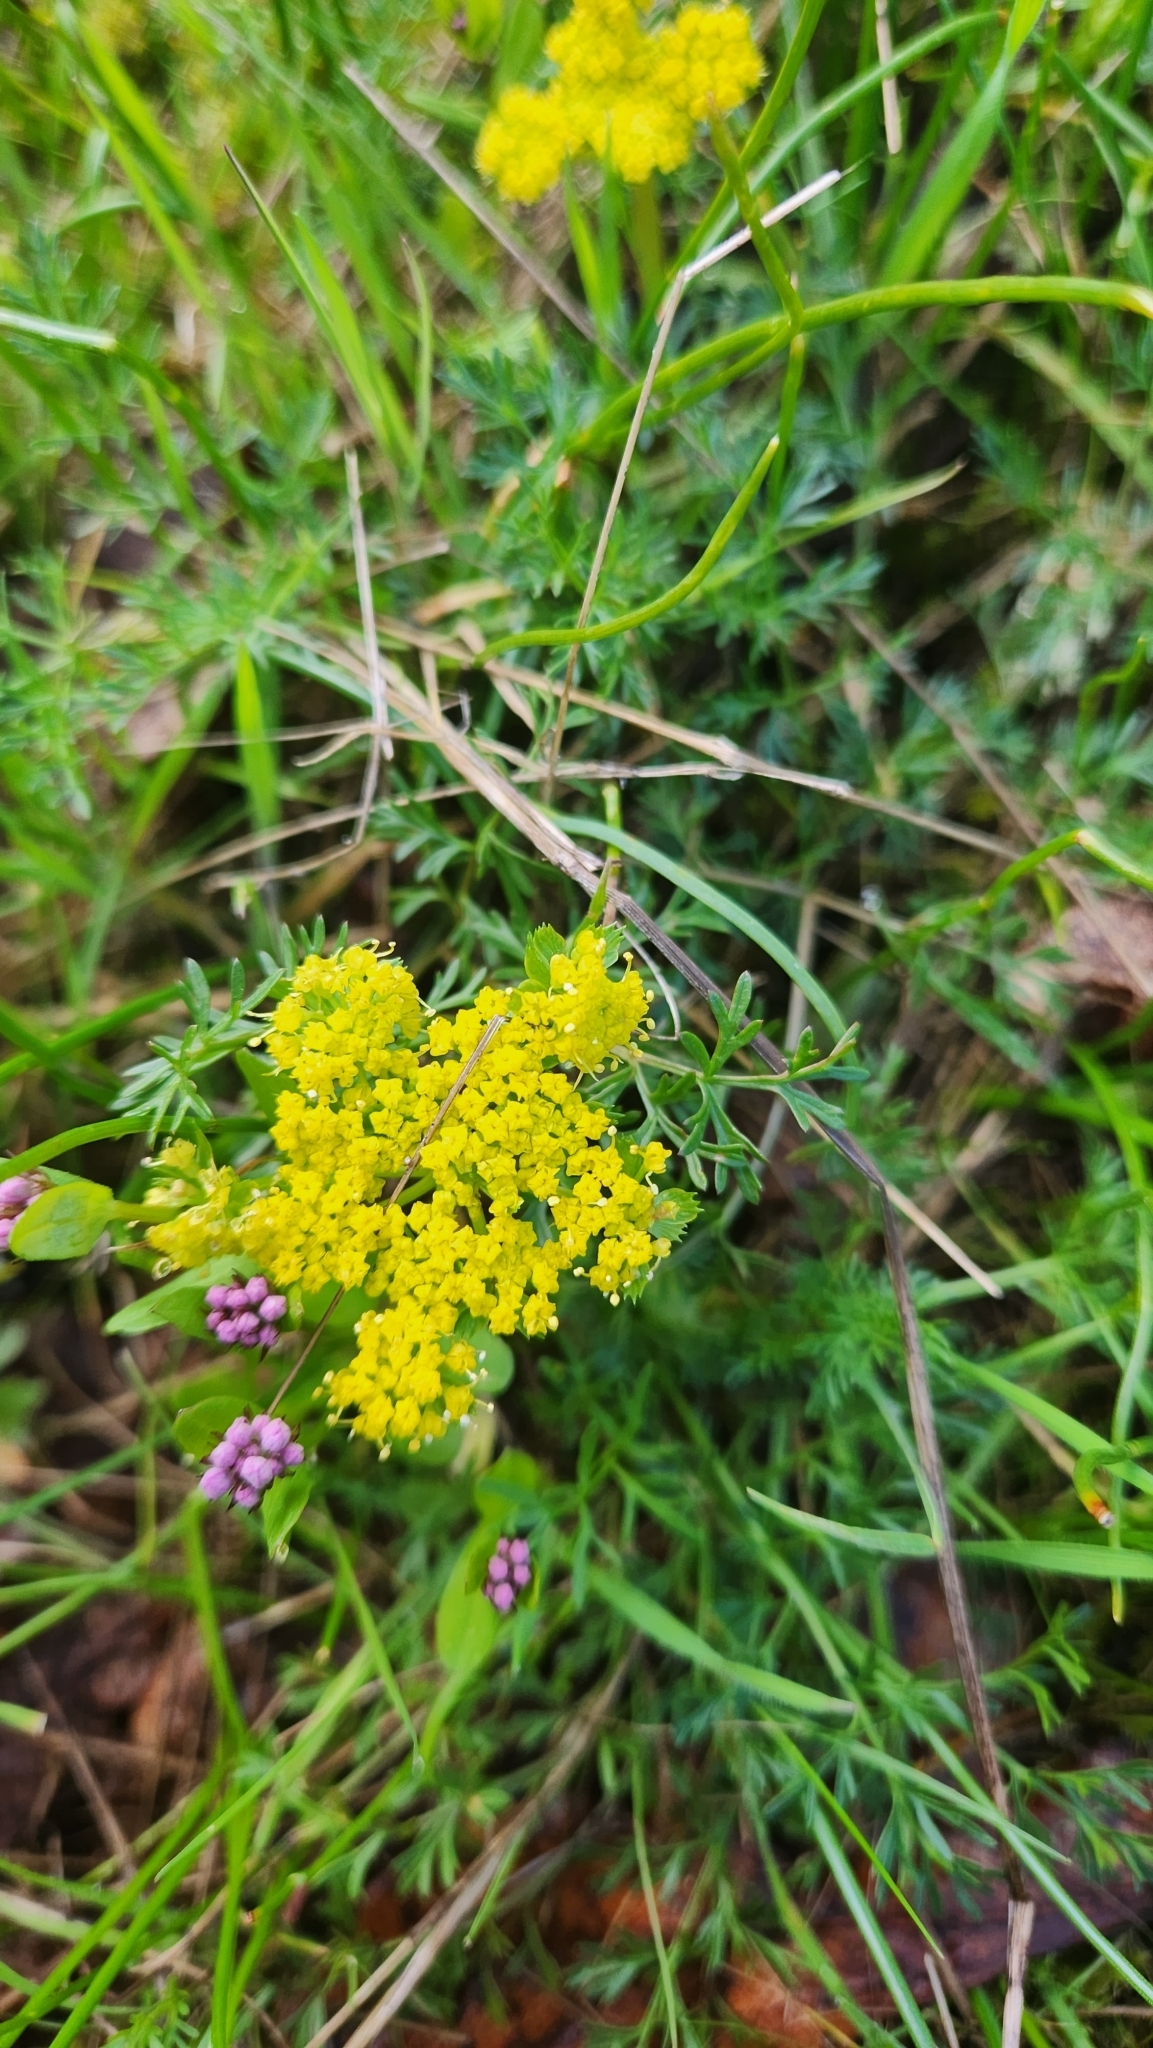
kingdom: Plantae
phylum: Tracheophyta
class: Magnoliopsida
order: Apiales
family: Apiaceae
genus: Lomatium
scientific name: Lomatium utriculatum
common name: Fine-leaf desert-parsley
